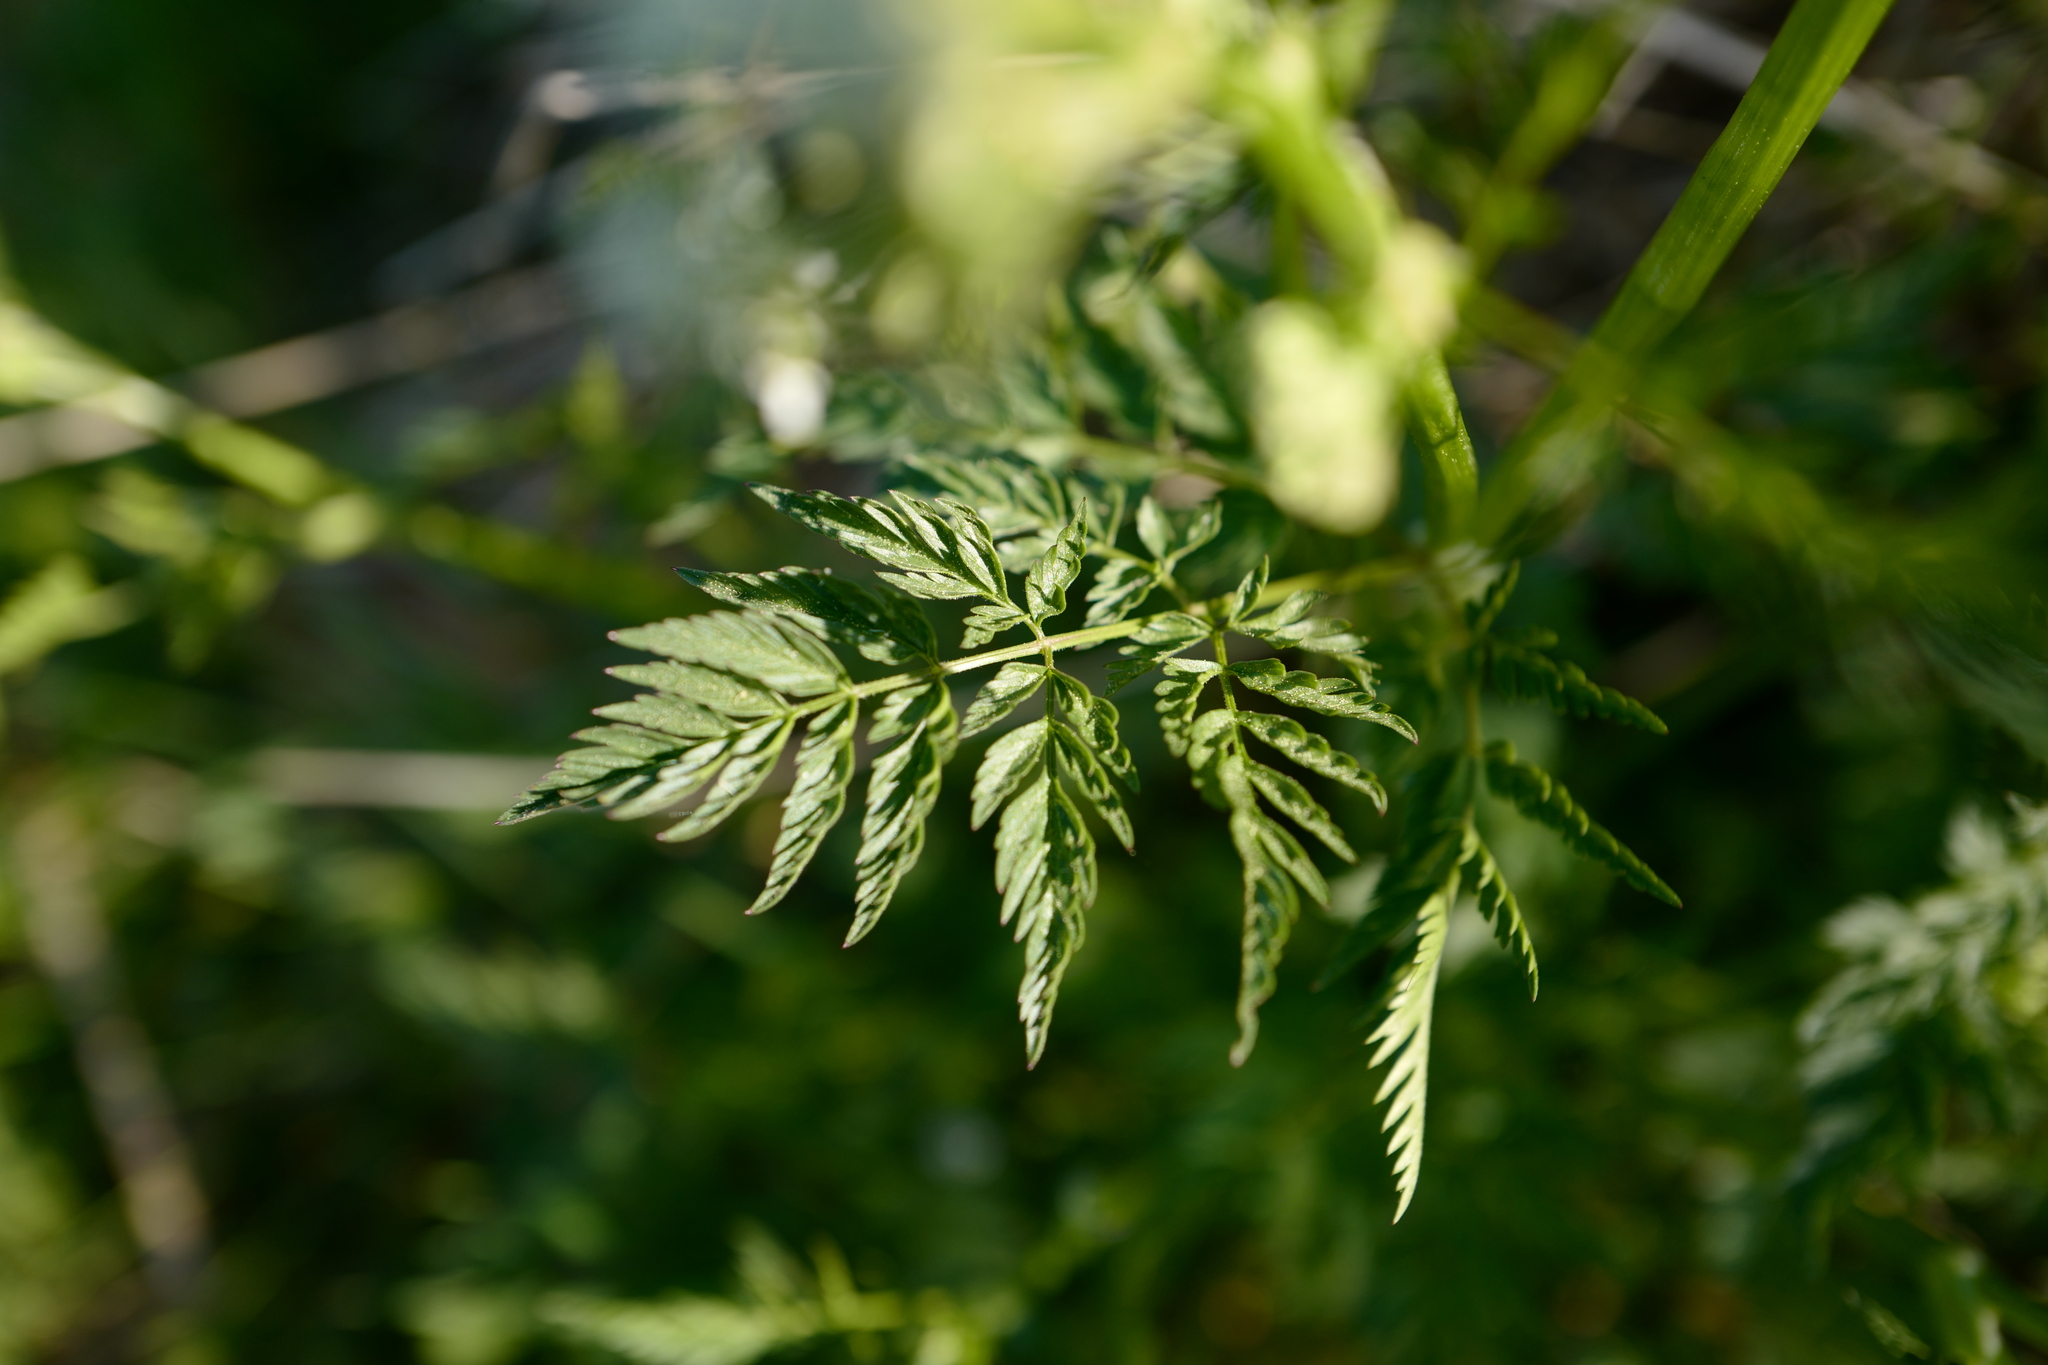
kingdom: Plantae
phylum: Tracheophyta
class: Magnoliopsida
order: Apiales
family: Apiaceae
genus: Anthriscus
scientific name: Anthriscus sylvestris
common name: Cow parsley
